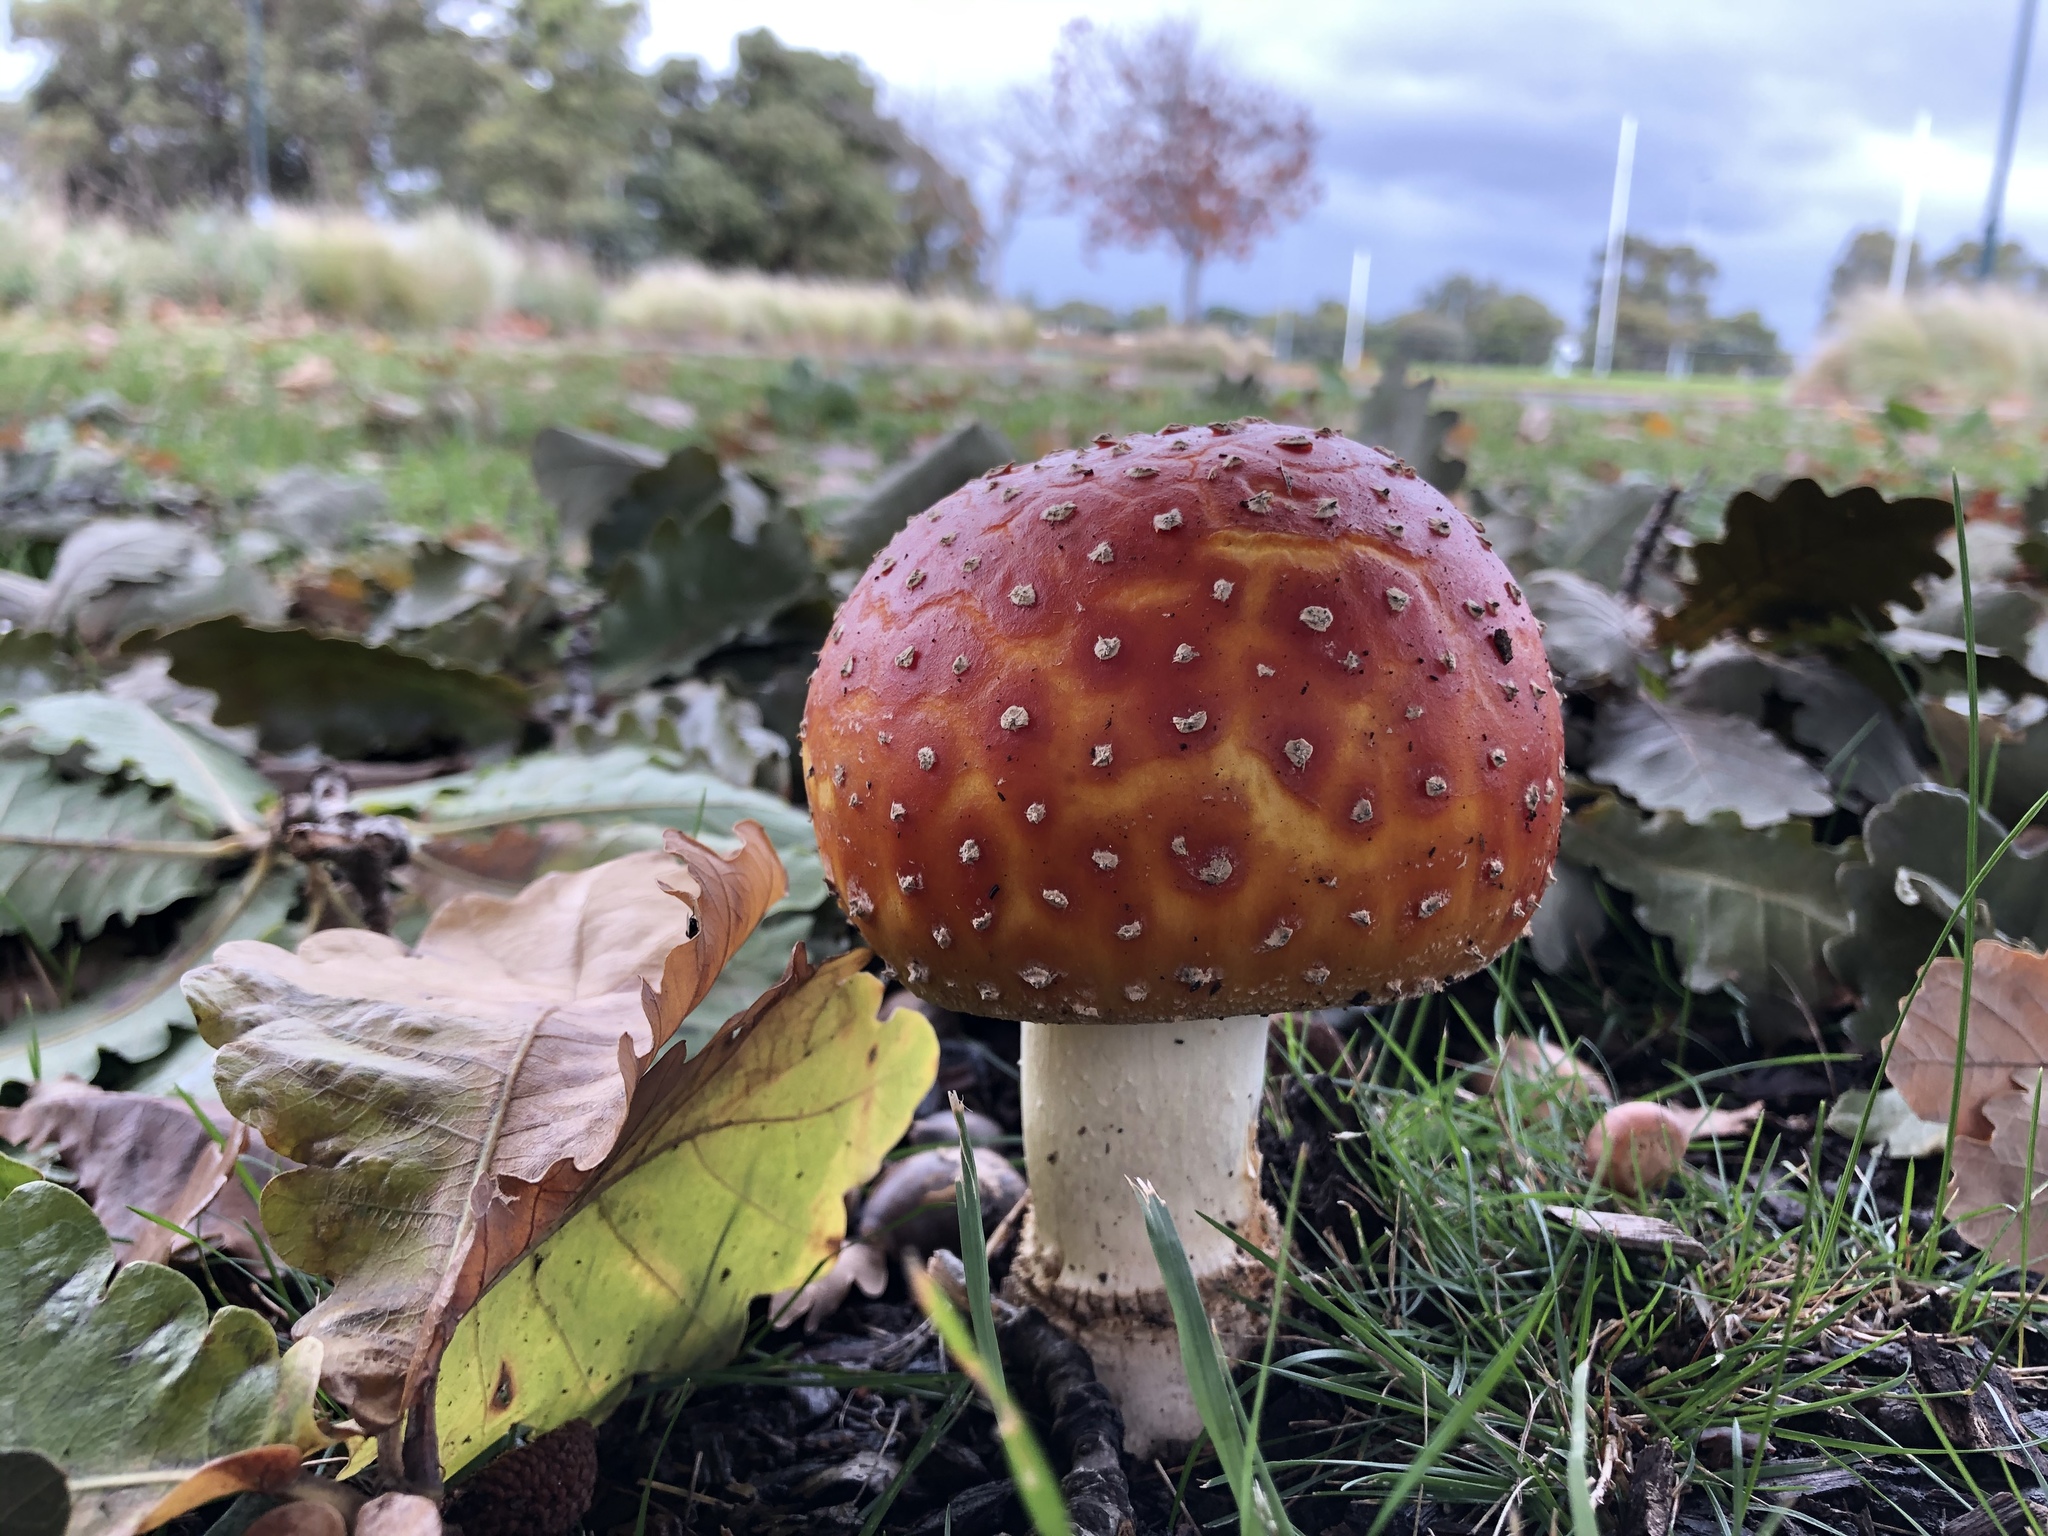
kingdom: Fungi
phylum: Basidiomycota
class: Agaricomycetes
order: Agaricales
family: Amanitaceae
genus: Amanita
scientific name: Amanita muscaria
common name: Fly agaric
